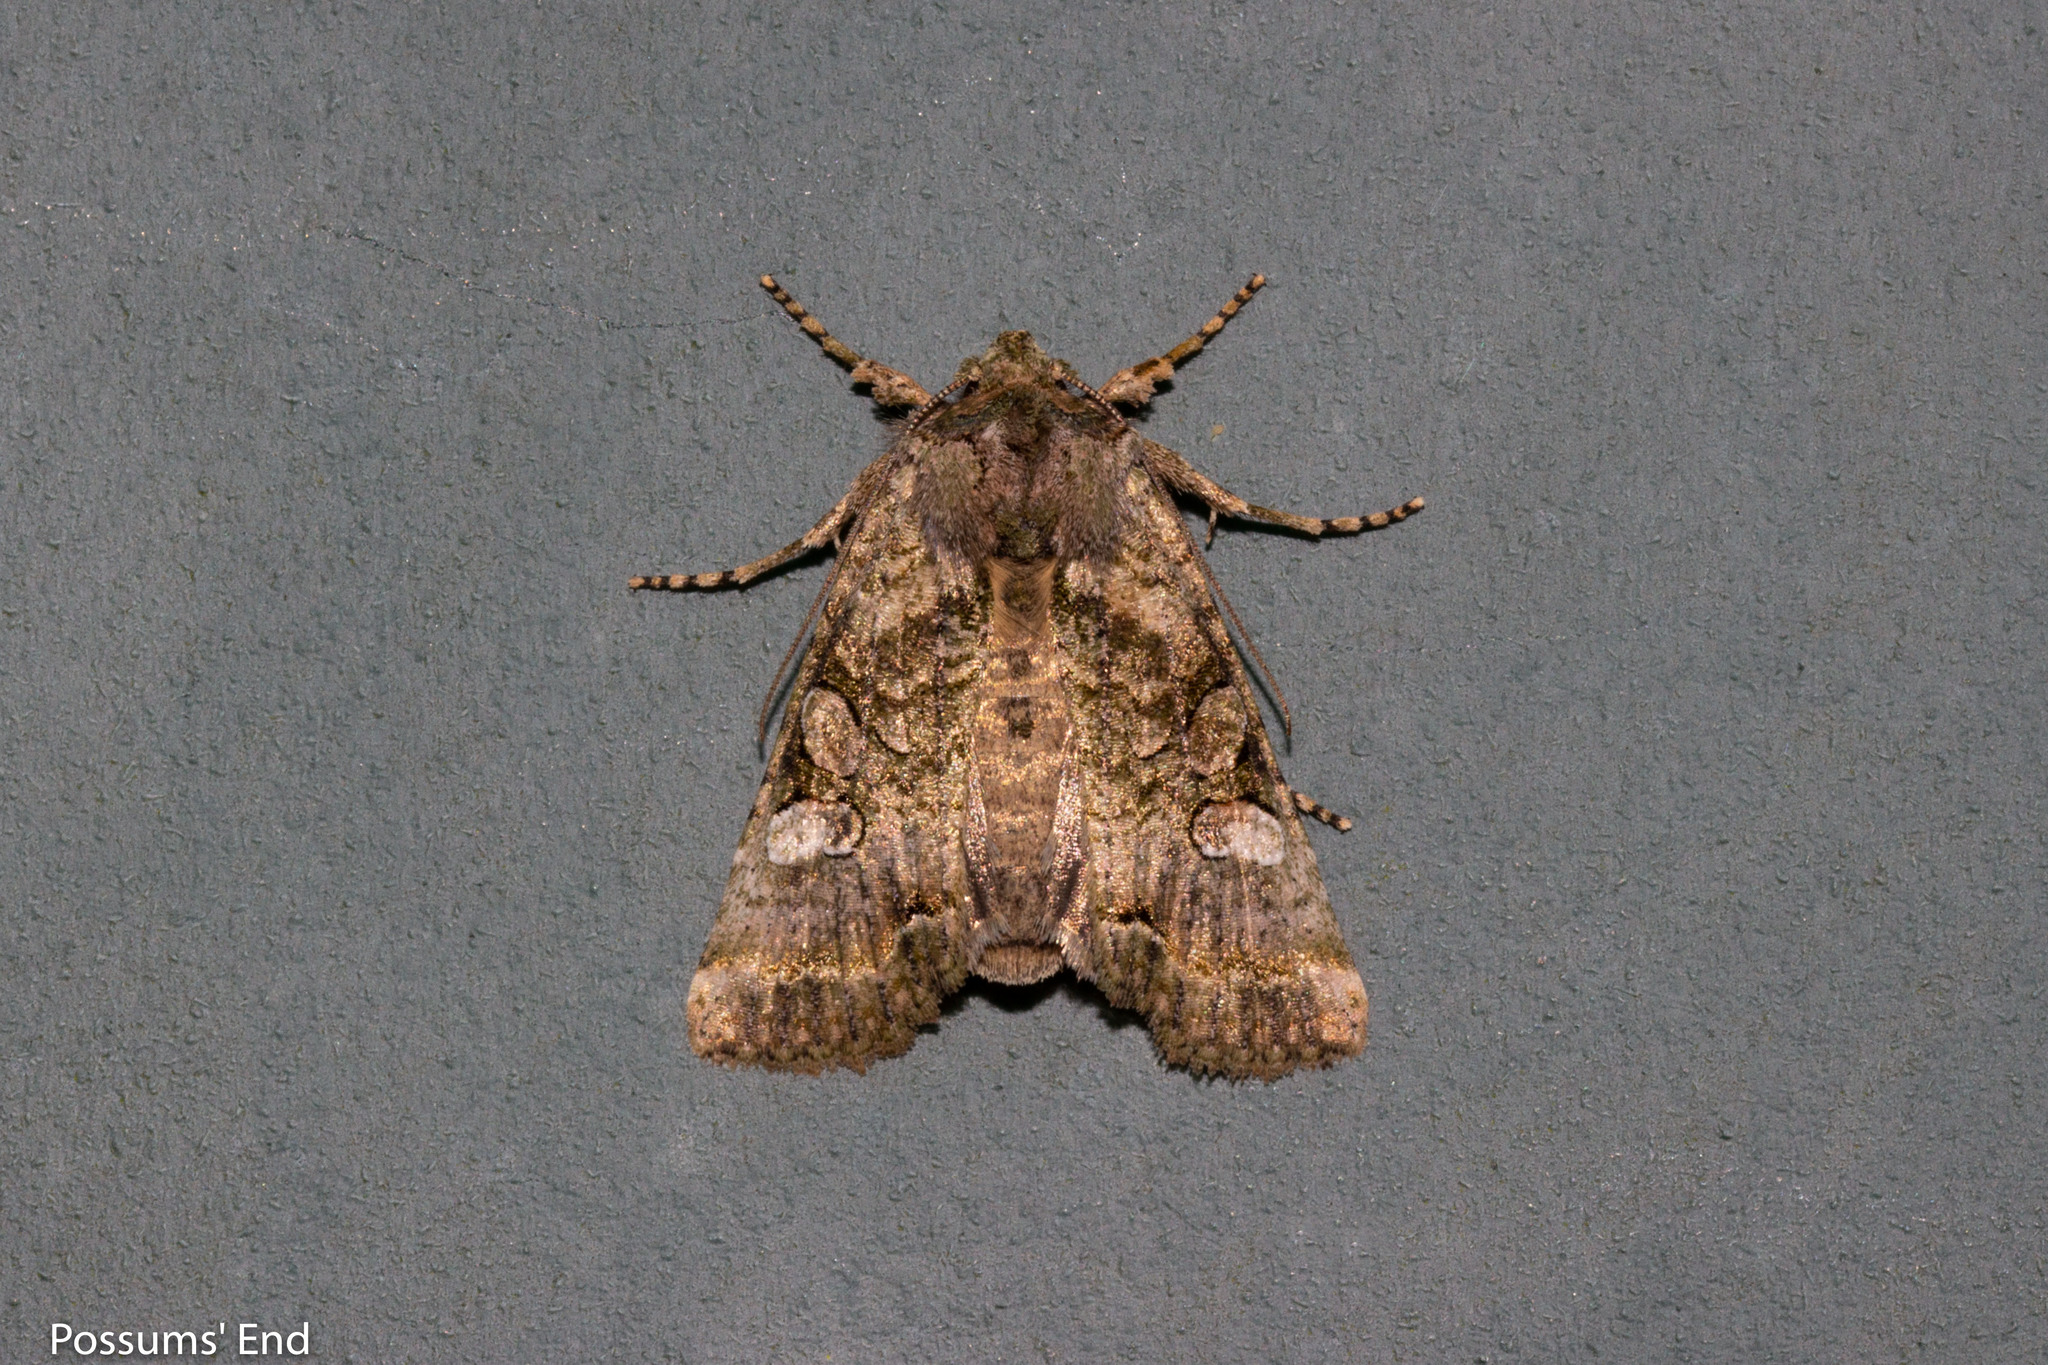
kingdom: Animalia
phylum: Arthropoda
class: Insecta
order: Lepidoptera
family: Noctuidae
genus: Meterana
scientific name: Meterana levis
